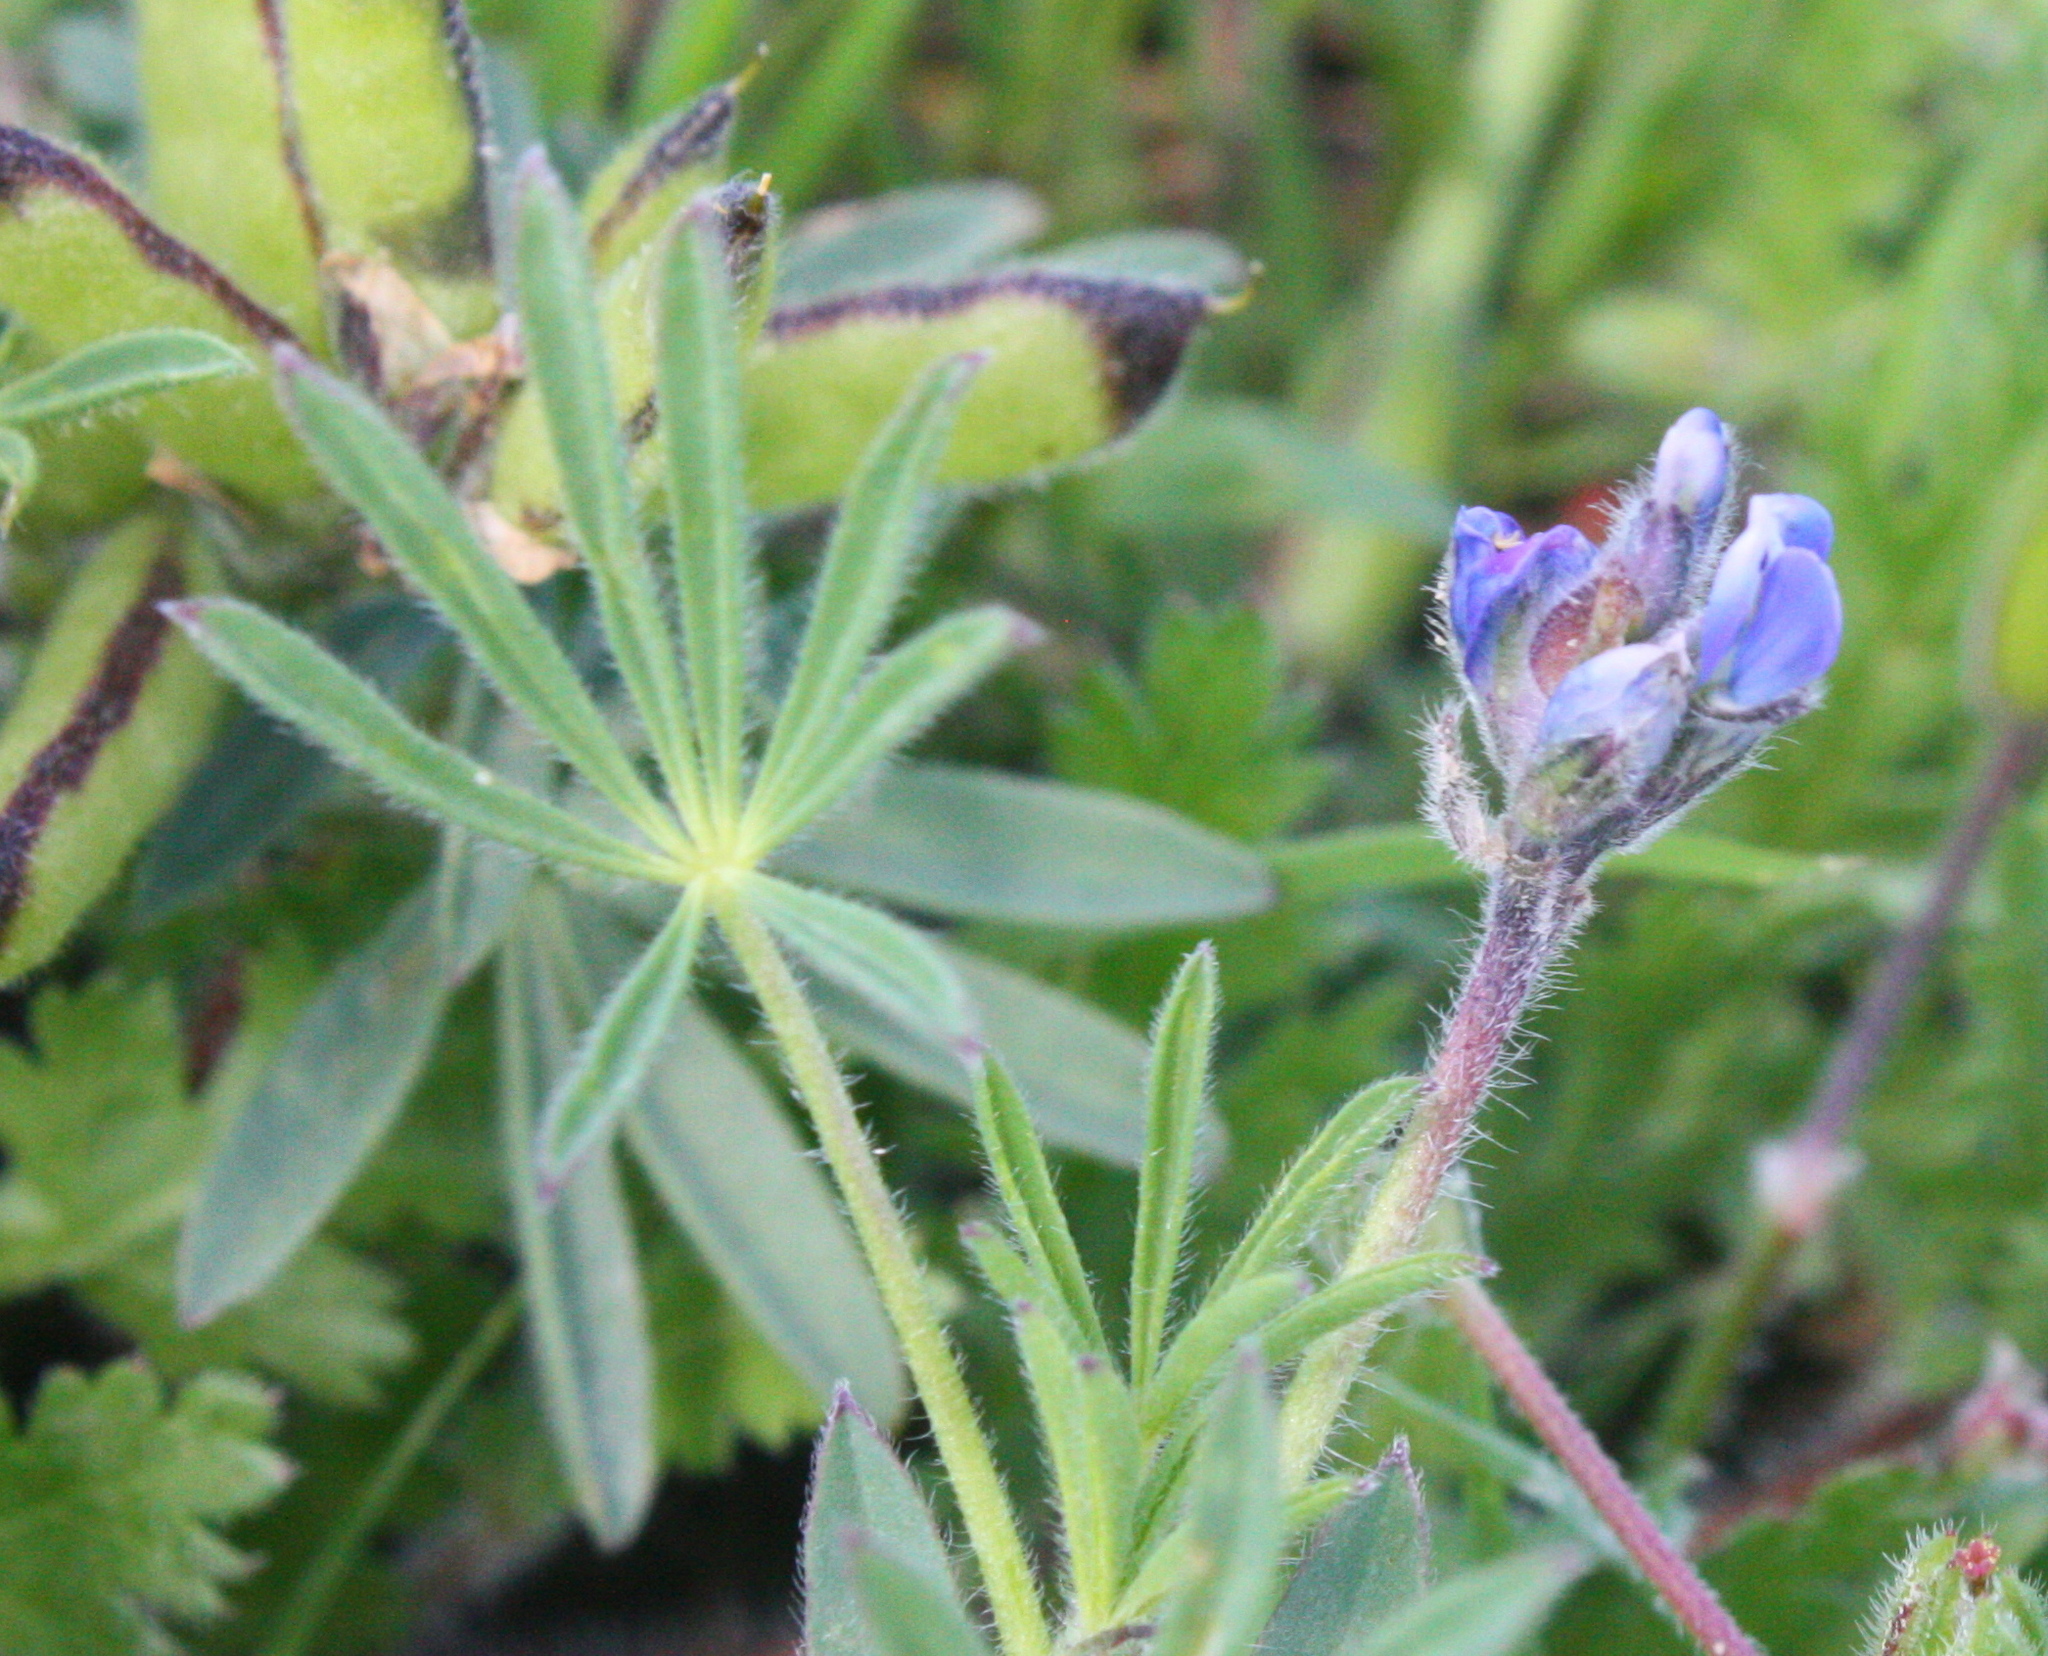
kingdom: Plantae
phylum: Tracheophyta
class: Magnoliopsida
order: Fabales
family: Fabaceae
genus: Lupinus
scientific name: Lupinus bicolor
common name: Miniature lupine
